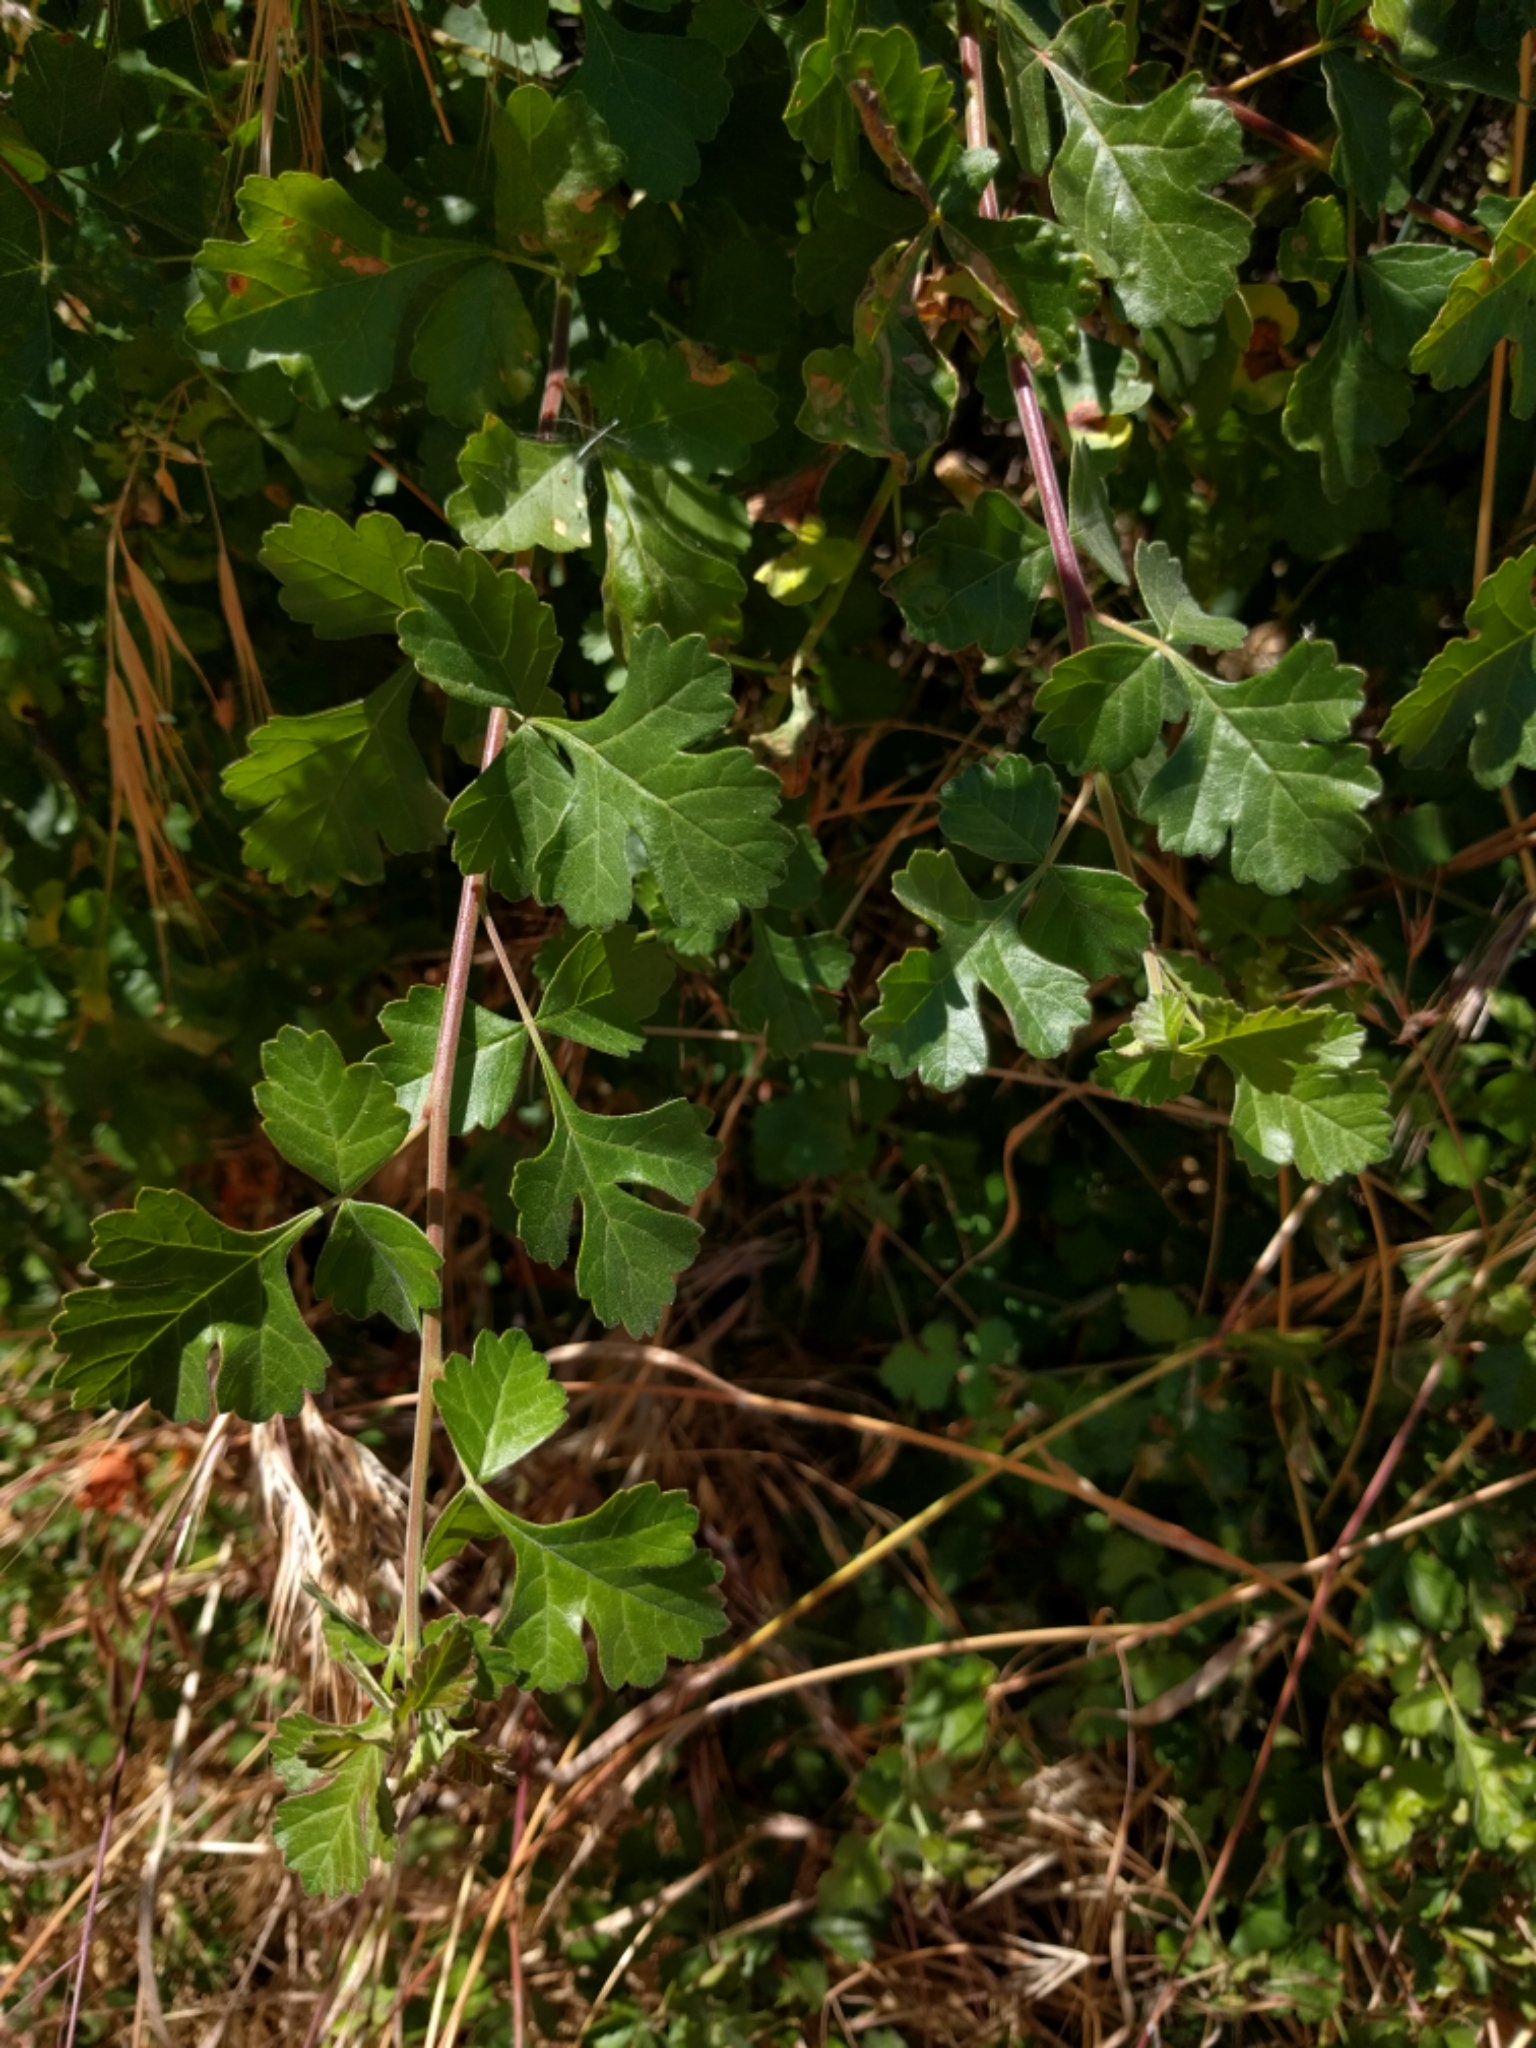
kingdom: Plantae
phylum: Tracheophyta
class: Magnoliopsida
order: Sapindales
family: Anacardiaceae
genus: Rhus
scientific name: Rhus aromatica
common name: Aromatic sumac
